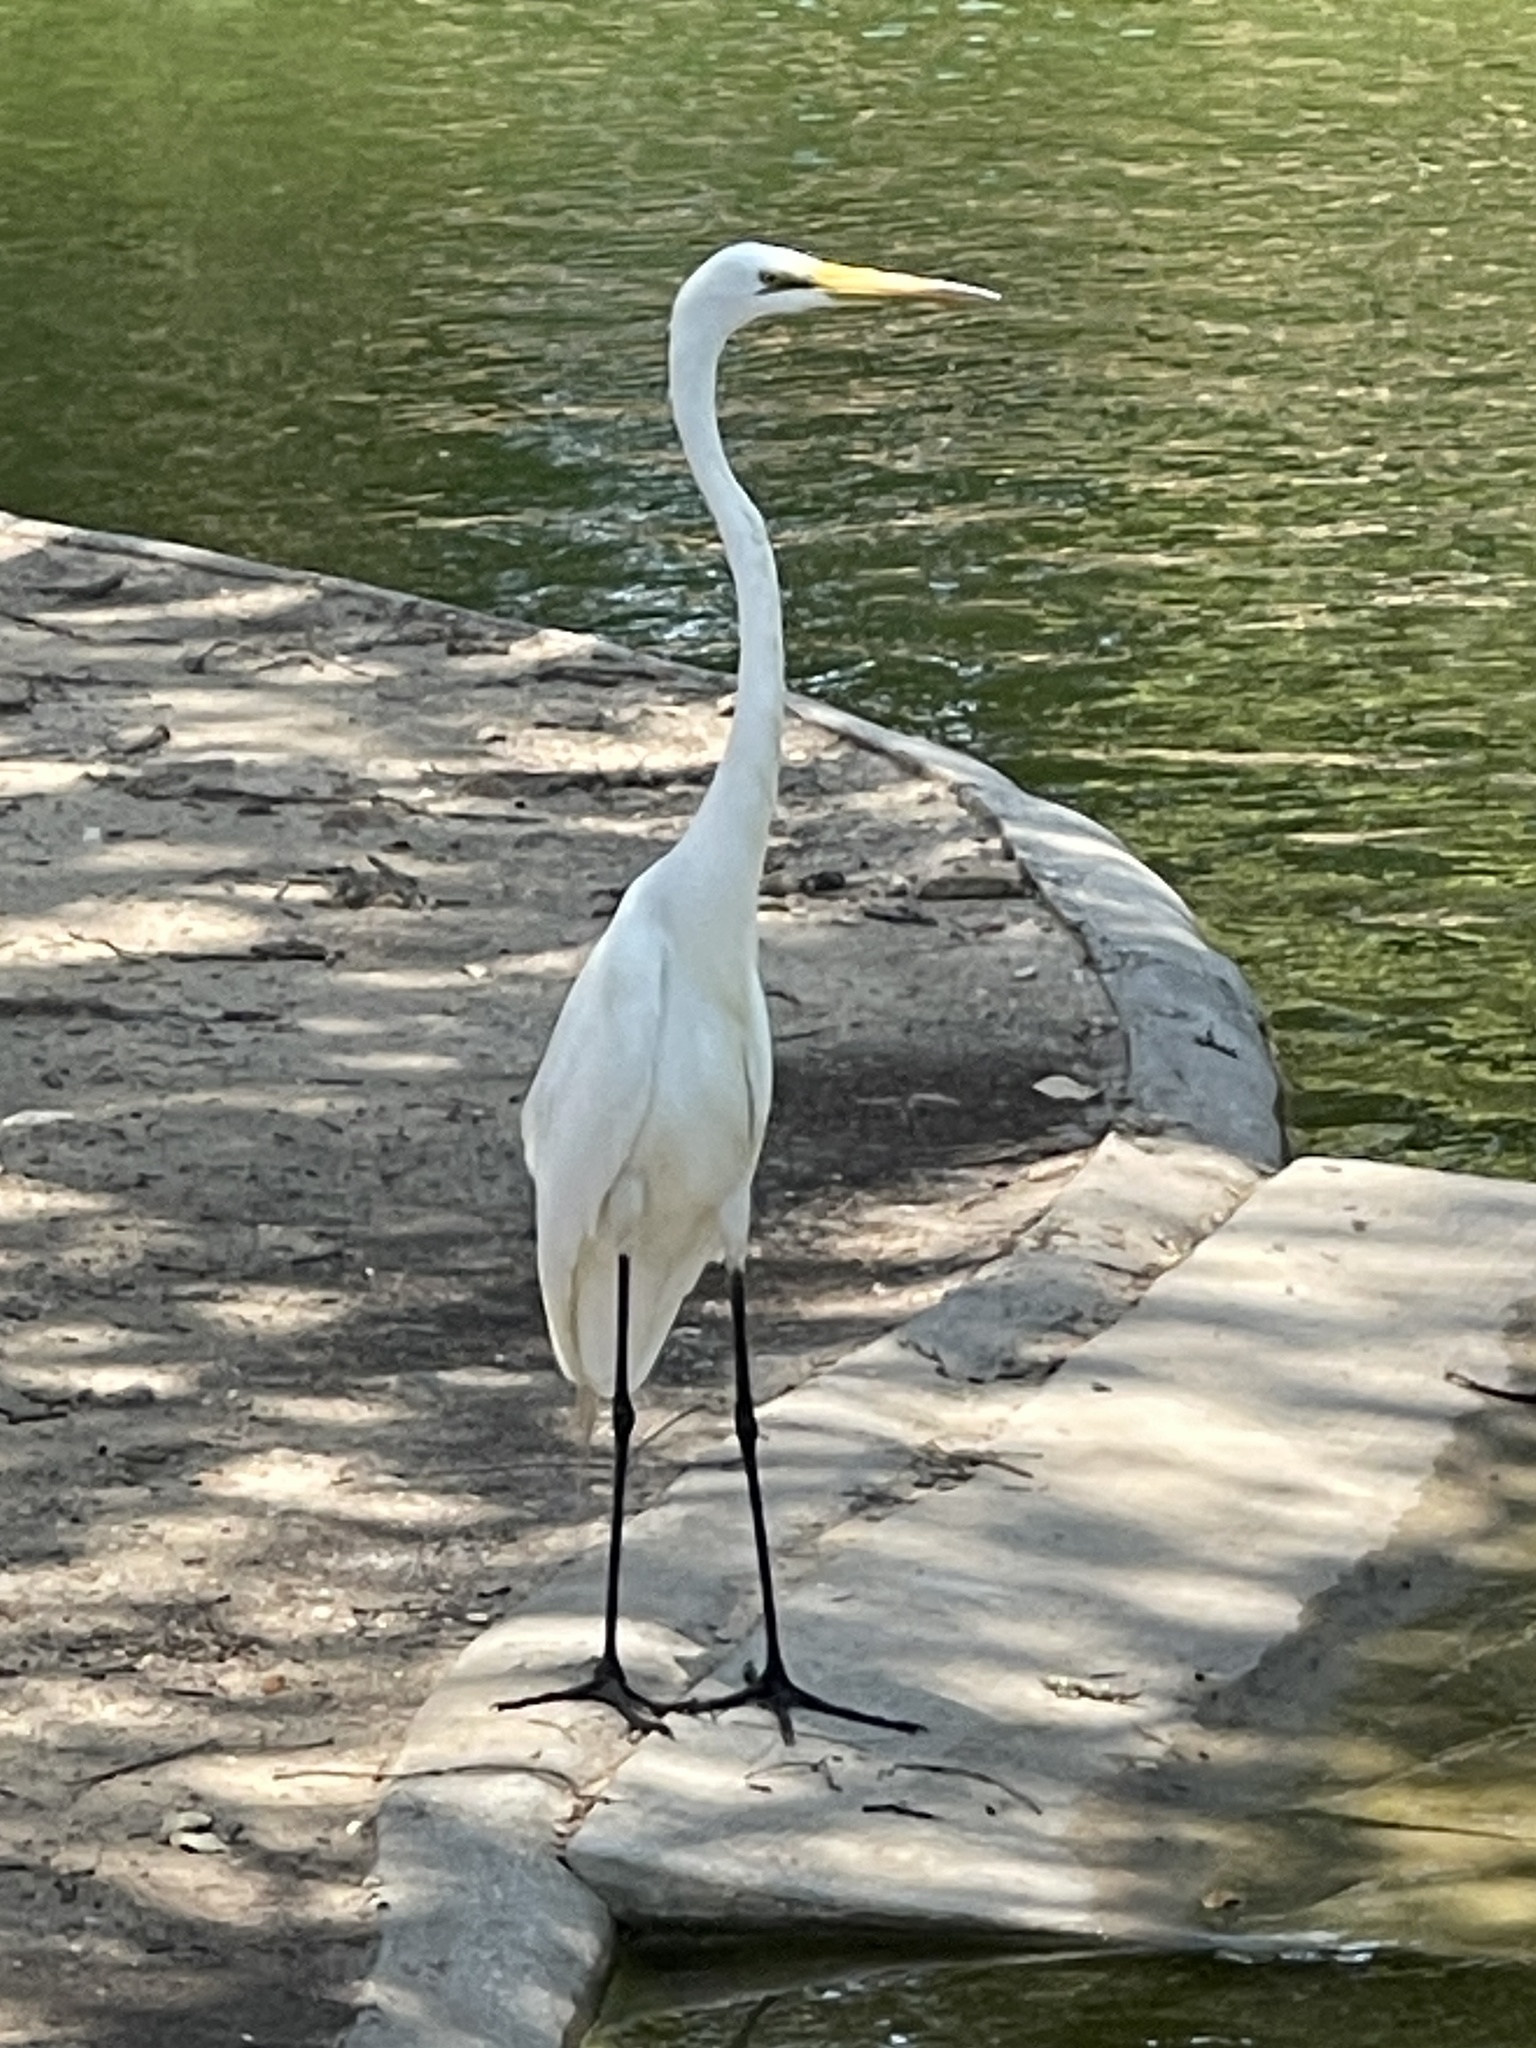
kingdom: Animalia
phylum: Chordata
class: Aves
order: Pelecaniformes
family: Ardeidae
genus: Ardea
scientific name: Ardea alba
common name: Great egret
